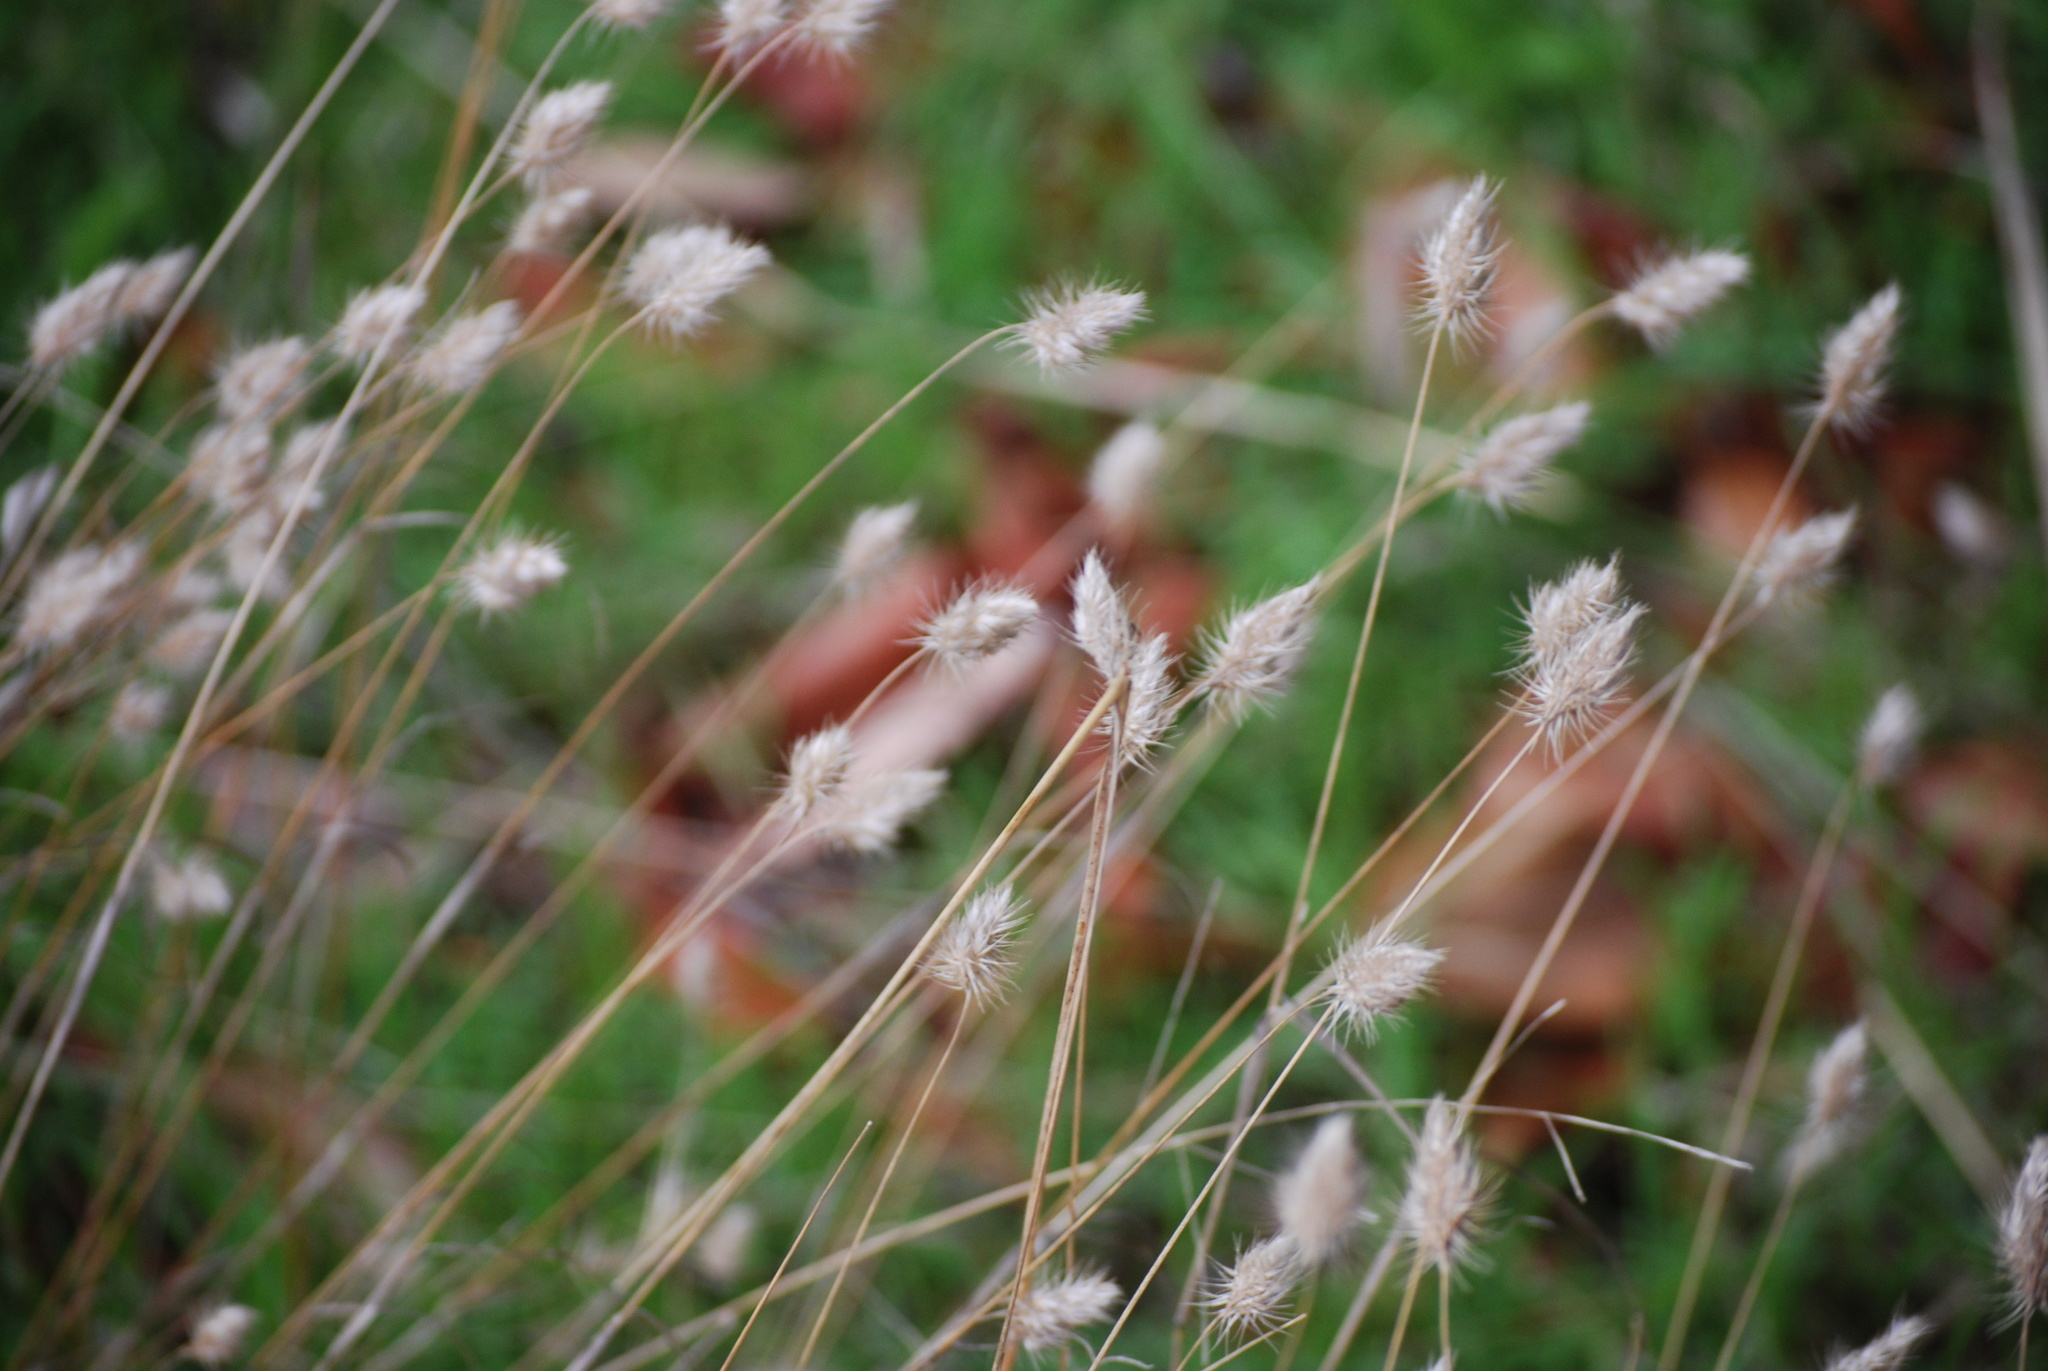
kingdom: Plantae
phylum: Tracheophyta
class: Liliopsida
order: Poales
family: Poaceae
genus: Cynosurus
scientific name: Cynosurus echinatus
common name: Rough dog's-tail
